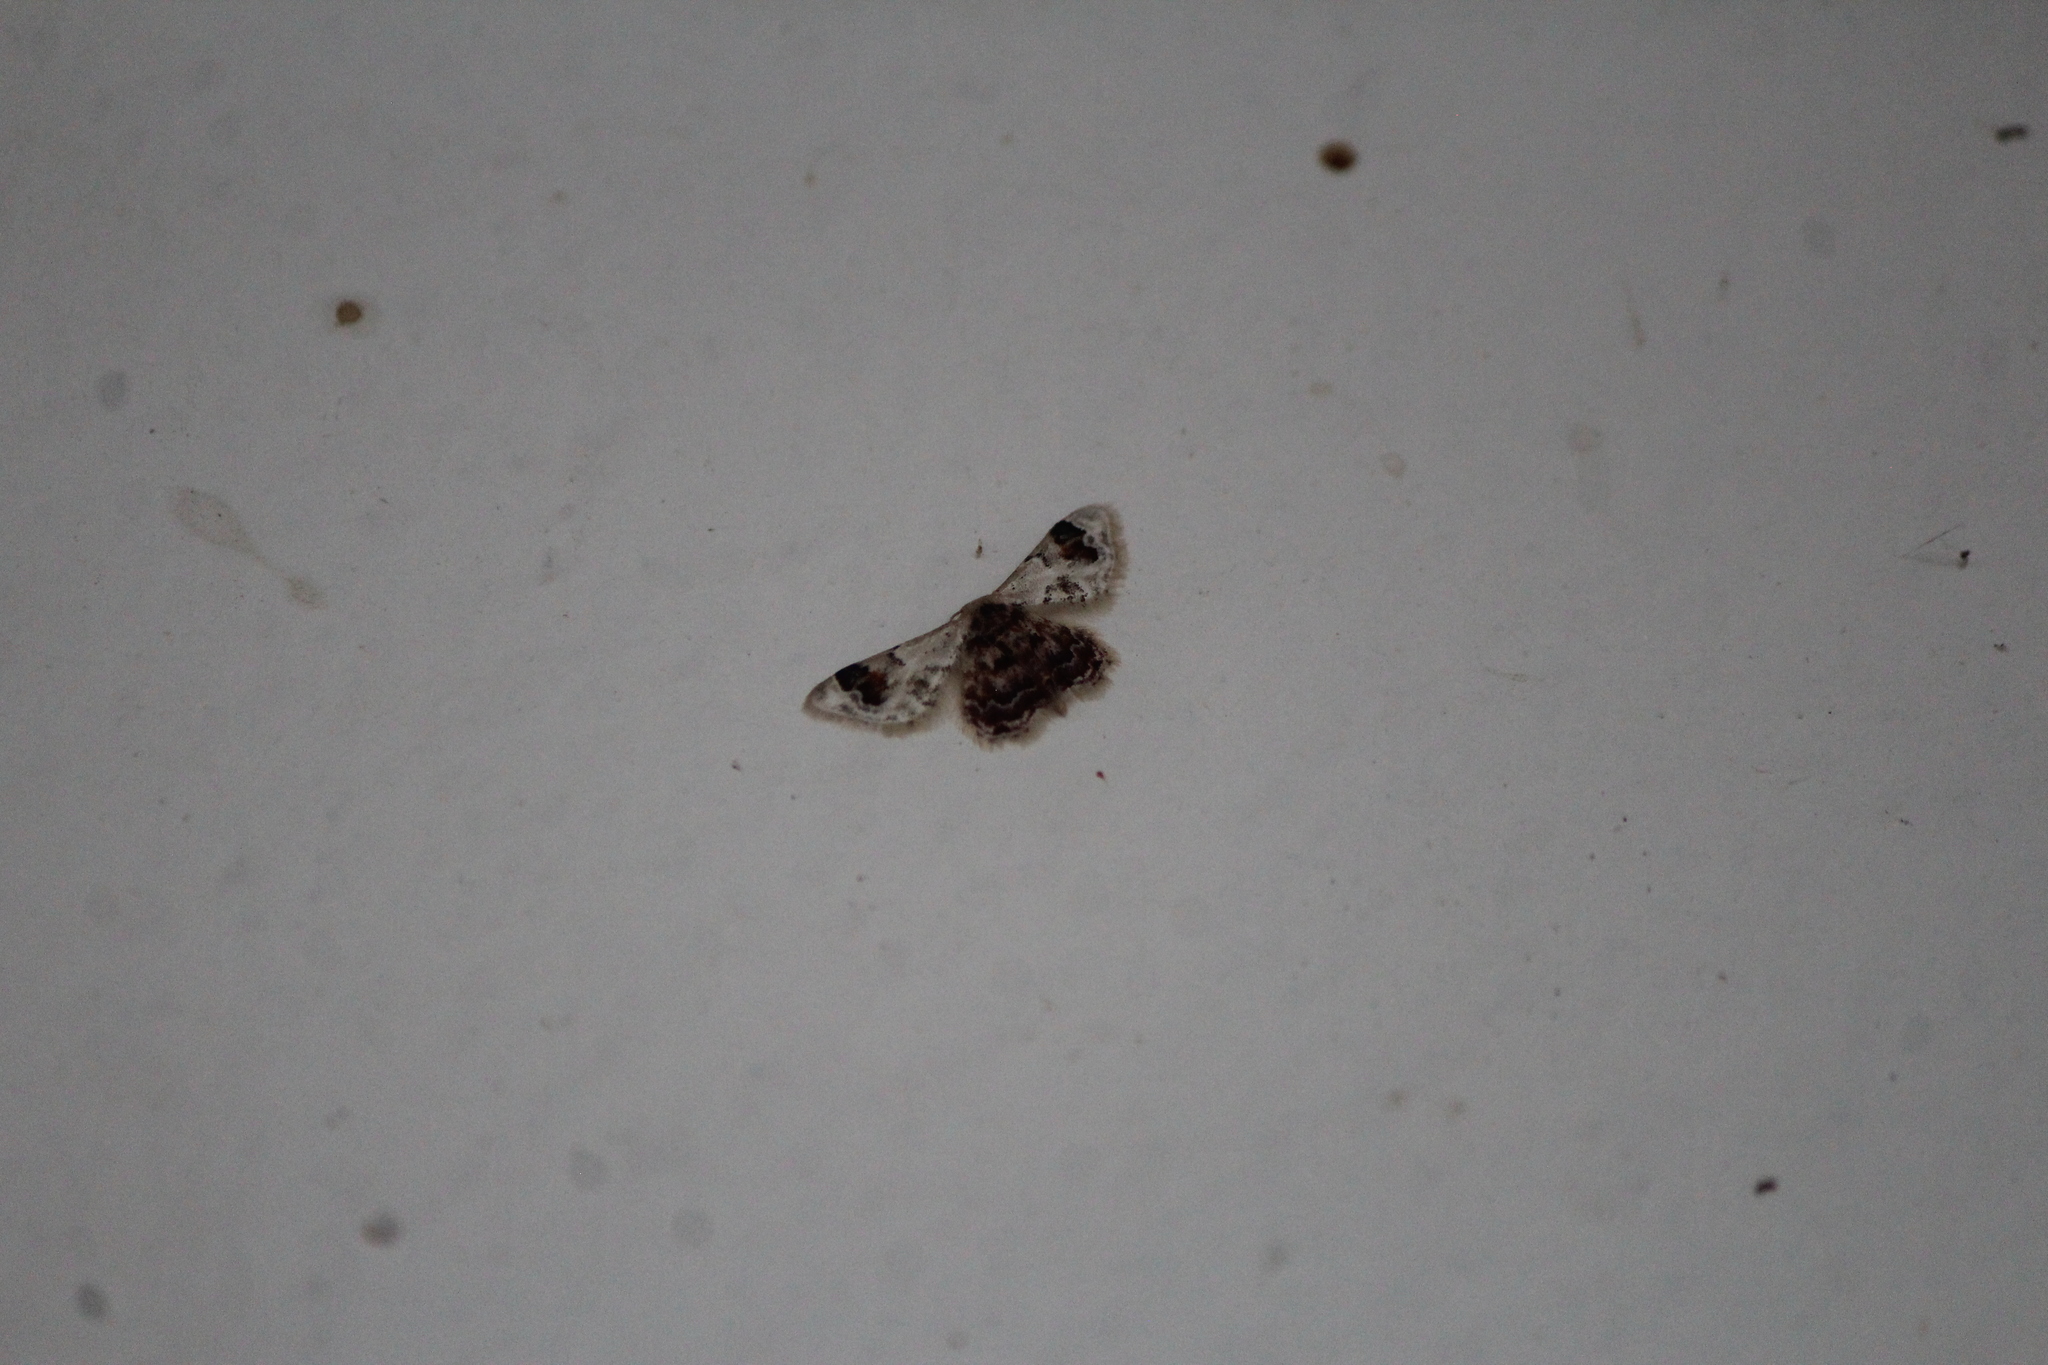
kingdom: Animalia
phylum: Arthropoda
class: Insecta
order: Lepidoptera
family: Geometridae
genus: Idaea
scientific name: Idaea asceta
